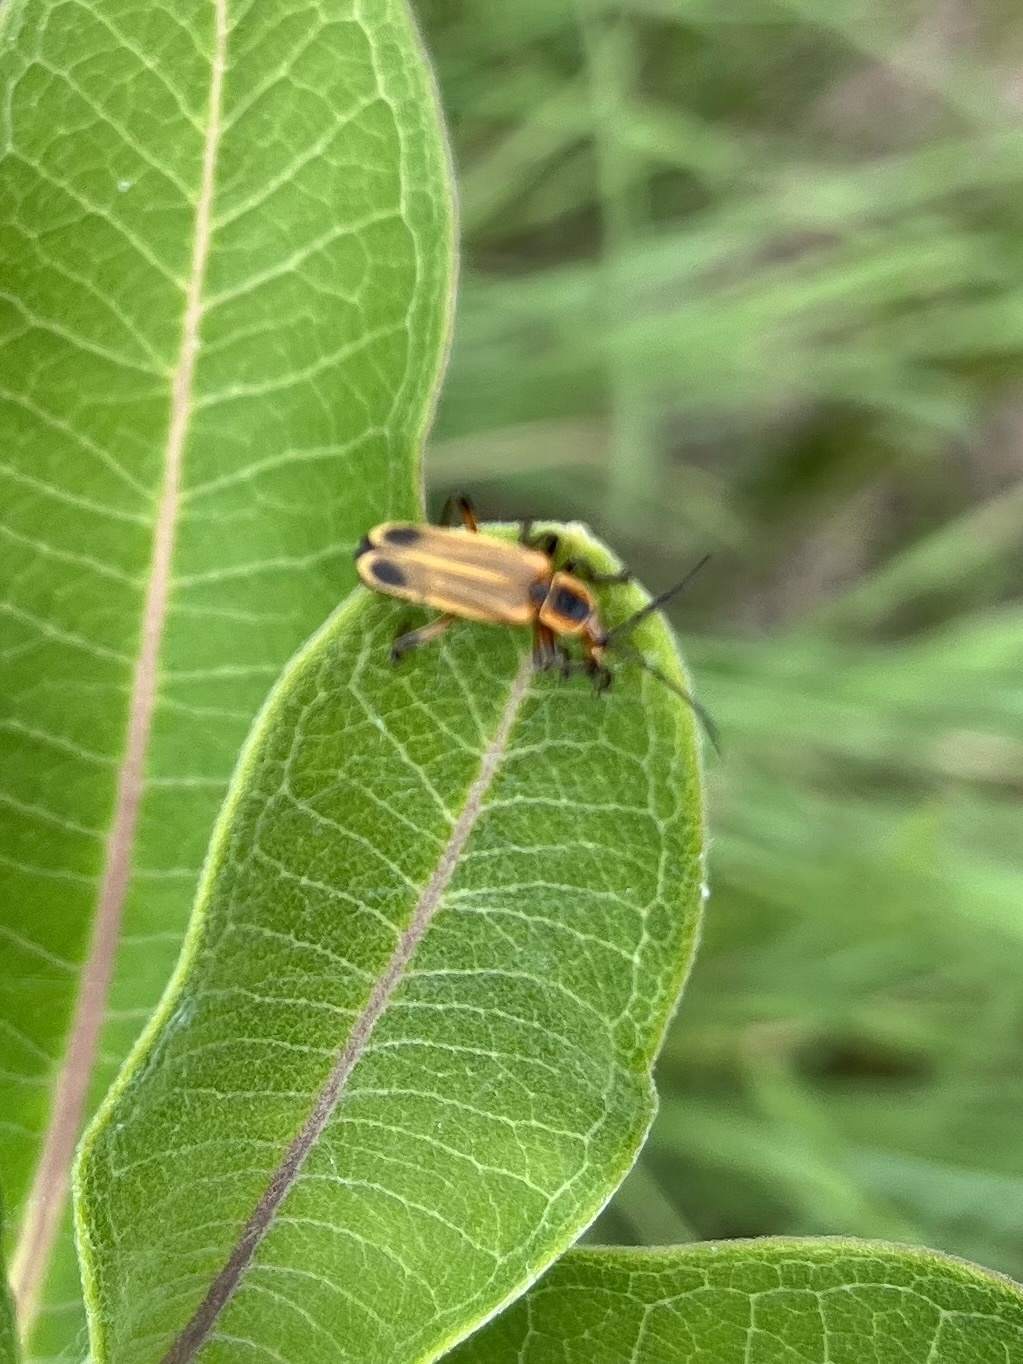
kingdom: Animalia
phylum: Arthropoda
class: Insecta
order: Coleoptera
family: Cantharidae
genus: Chauliognathus
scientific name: Chauliognathus marginatus
